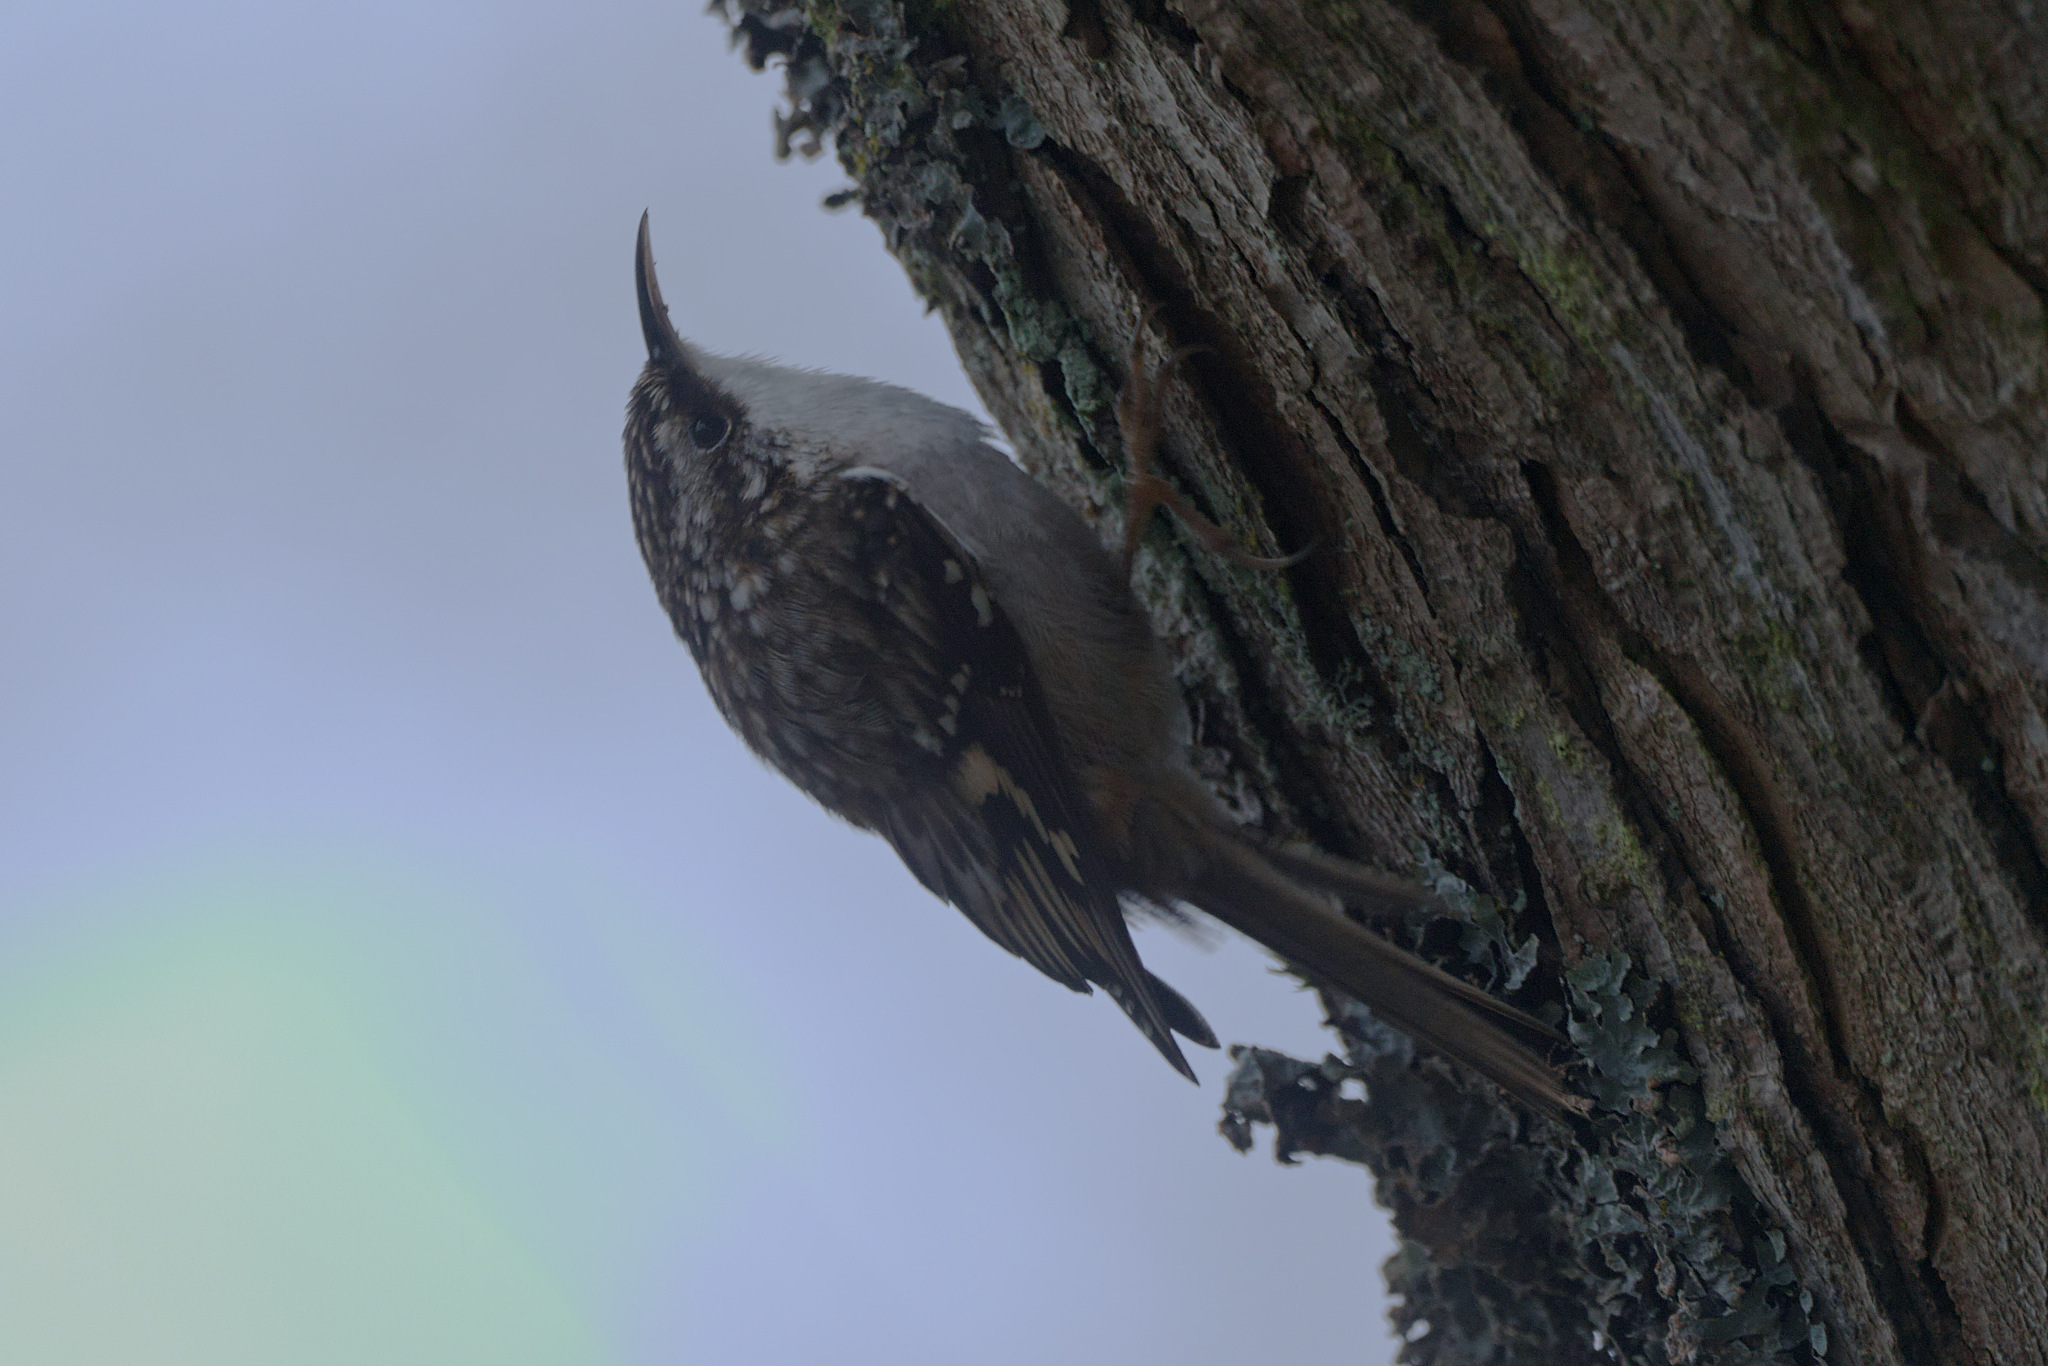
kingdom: Animalia
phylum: Chordata
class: Aves
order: Passeriformes
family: Certhiidae
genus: Certhia
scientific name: Certhia americana
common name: Brown creeper
